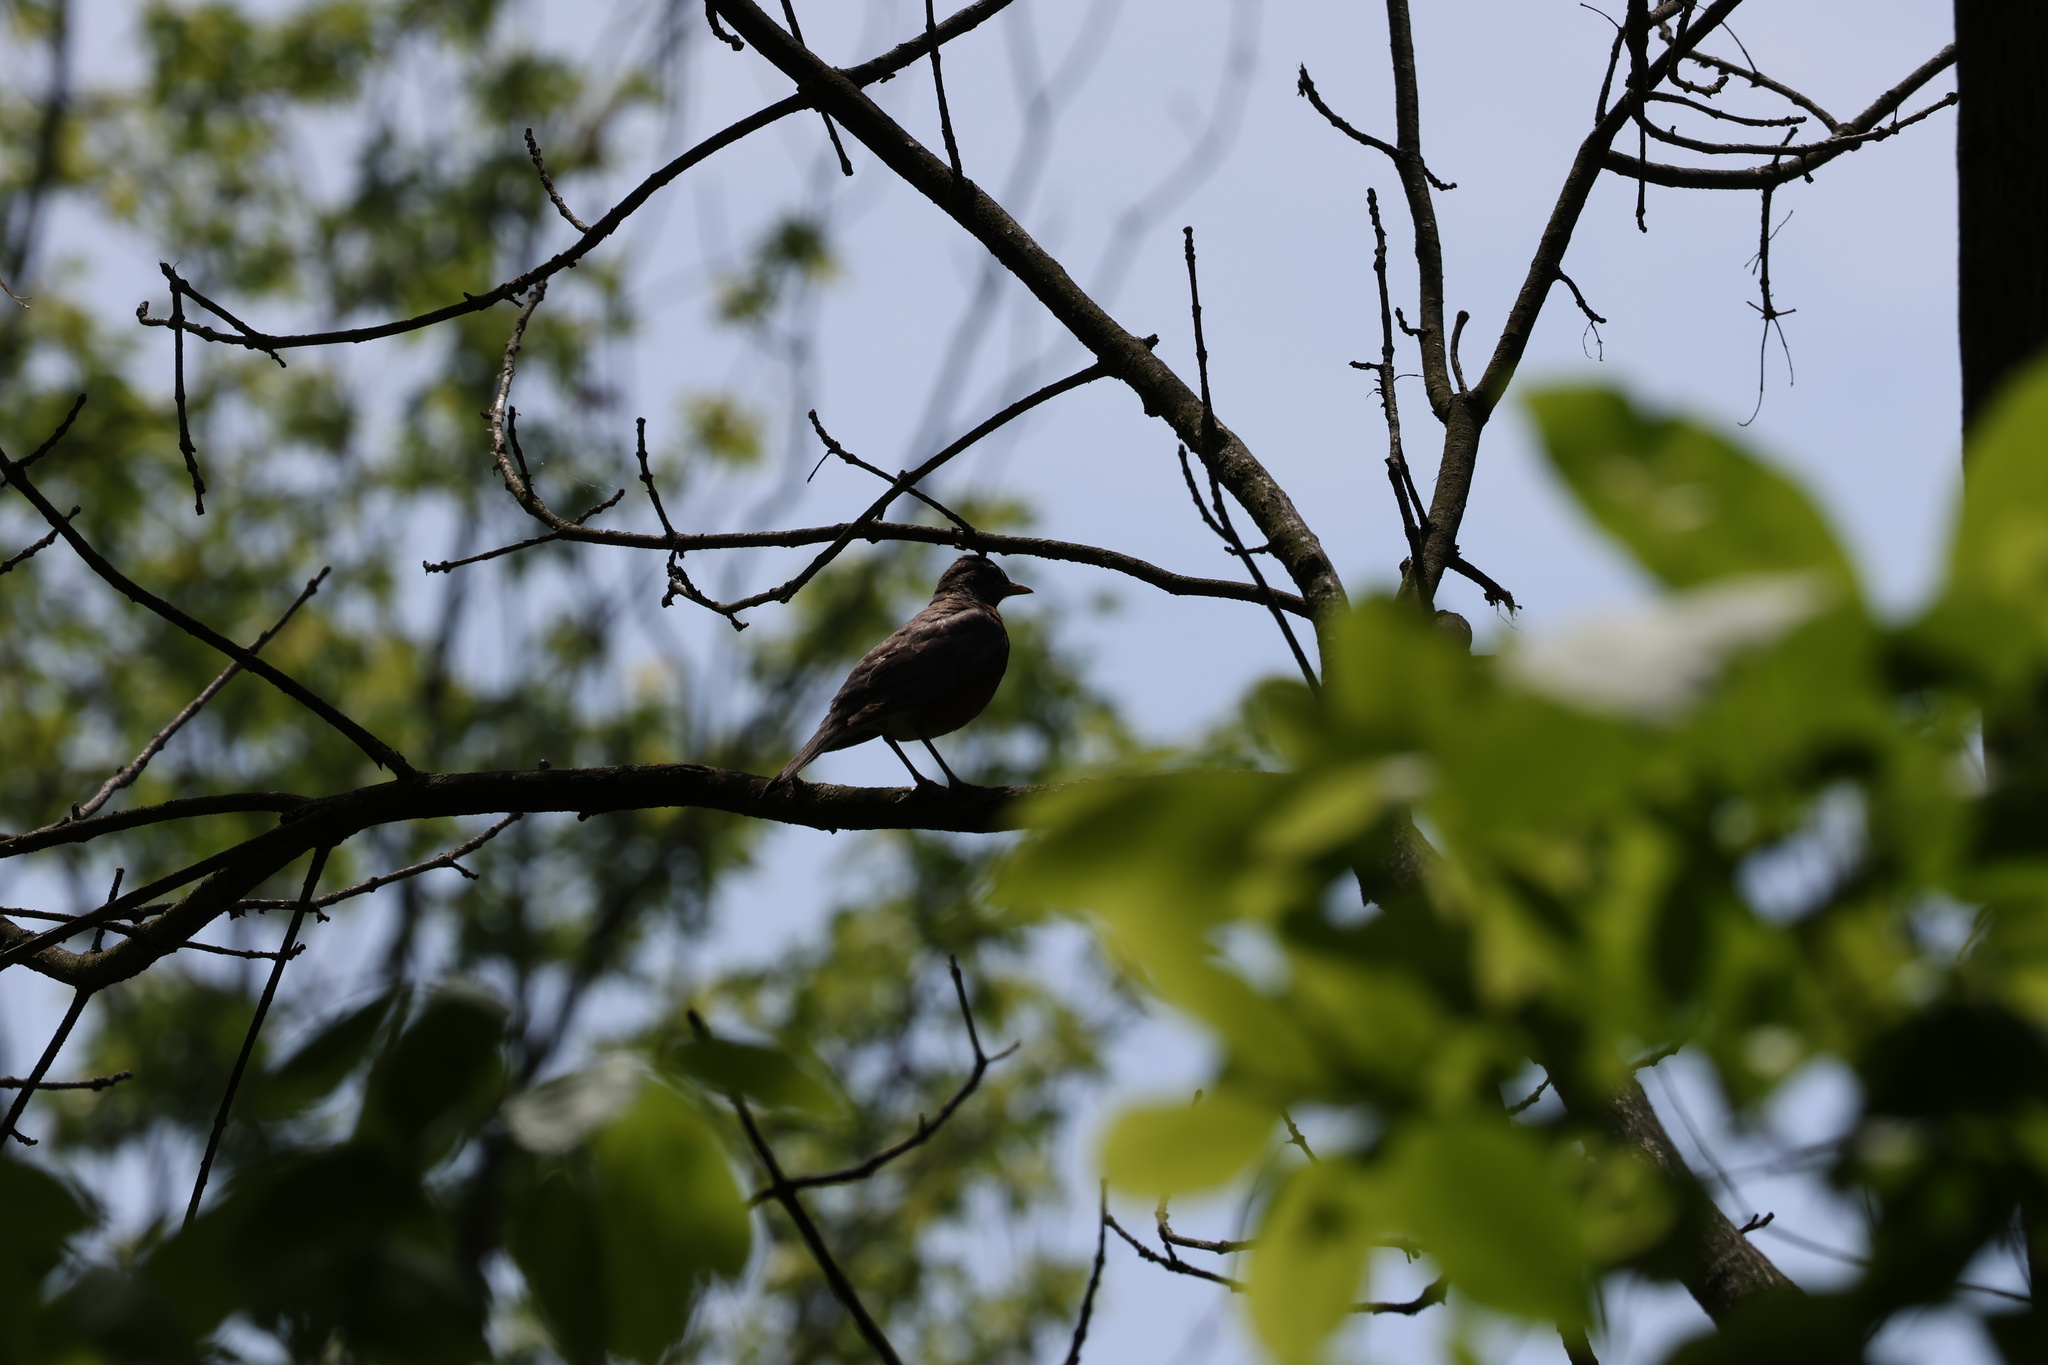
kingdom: Animalia
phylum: Chordata
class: Aves
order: Passeriformes
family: Turdidae
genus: Turdus
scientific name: Turdus migratorius
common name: American robin
